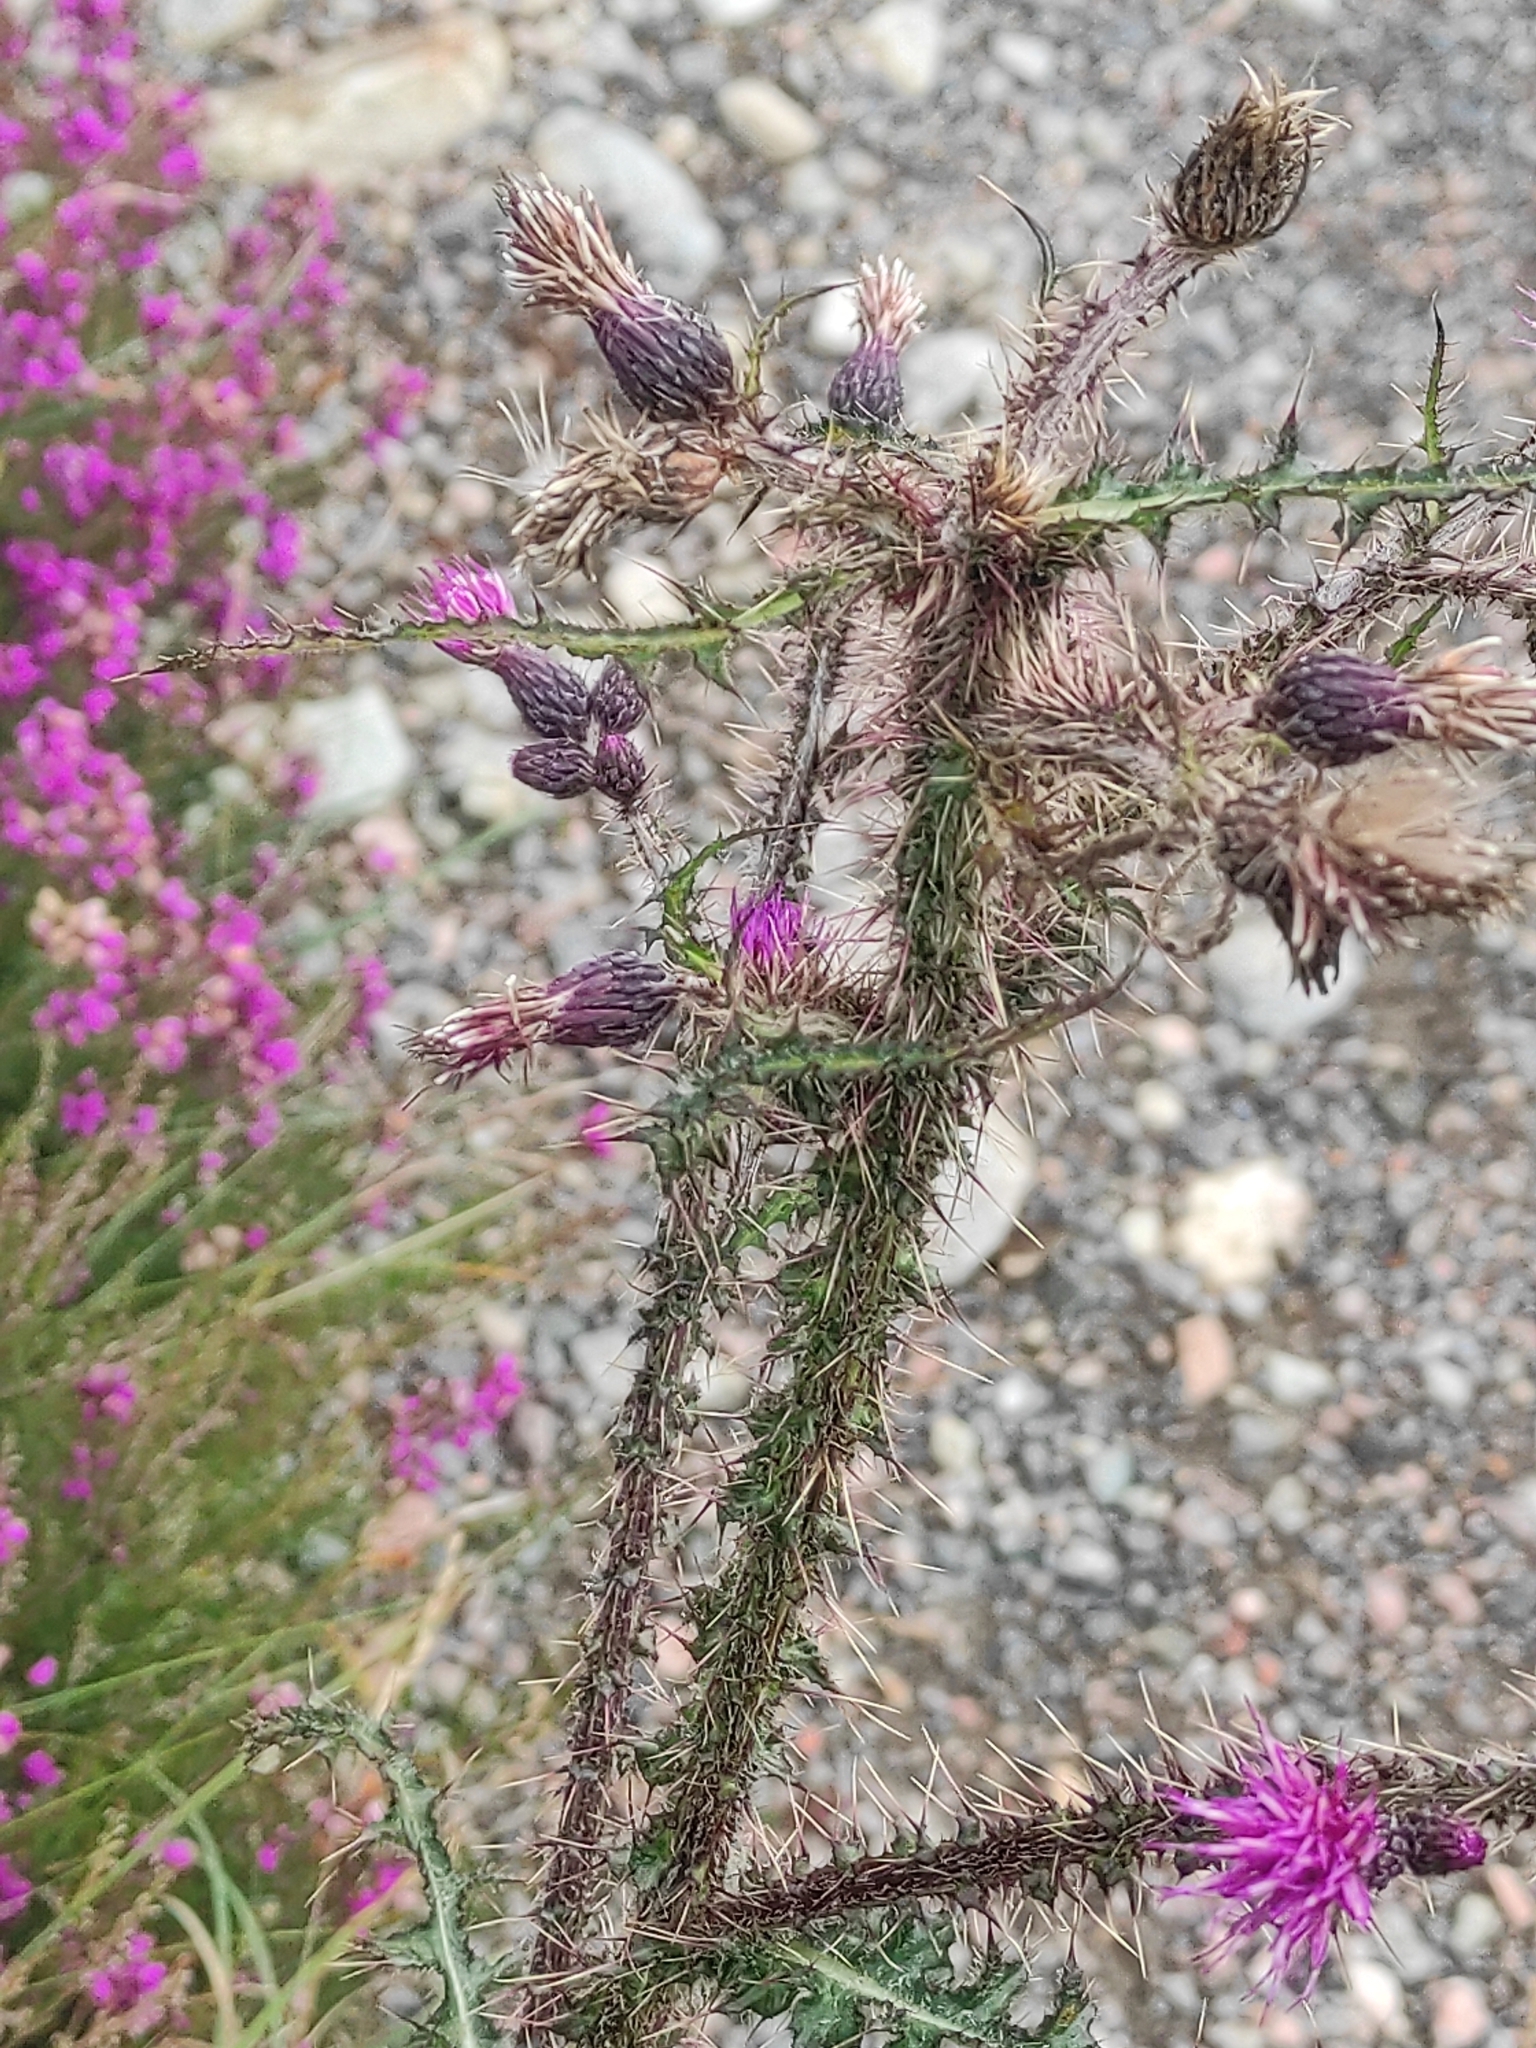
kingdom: Plantae
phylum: Tracheophyta
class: Magnoliopsida
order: Asterales
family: Asteraceae
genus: Cirsium
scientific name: Cirsium palustre
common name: Marsh thistle
